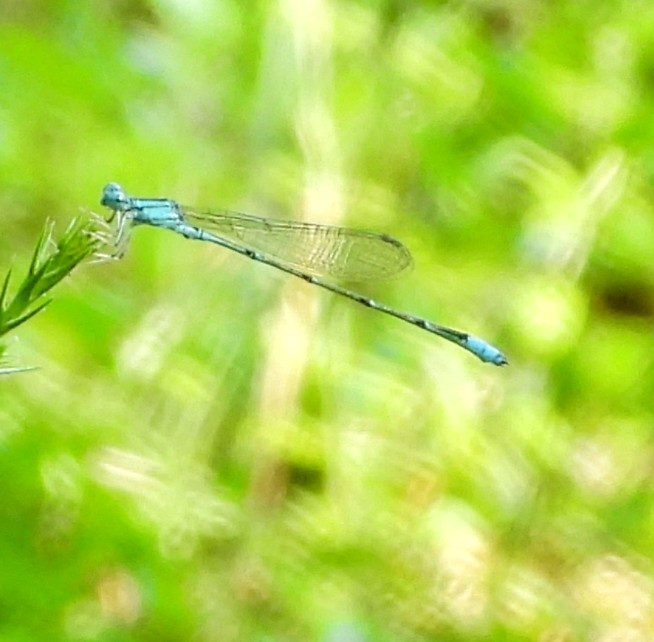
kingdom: Animalia
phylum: Arthropoda
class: Insecta
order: Odonata
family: Coenagrionidae
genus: Enallagma
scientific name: Enallagma traviatum
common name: Slender bluet
